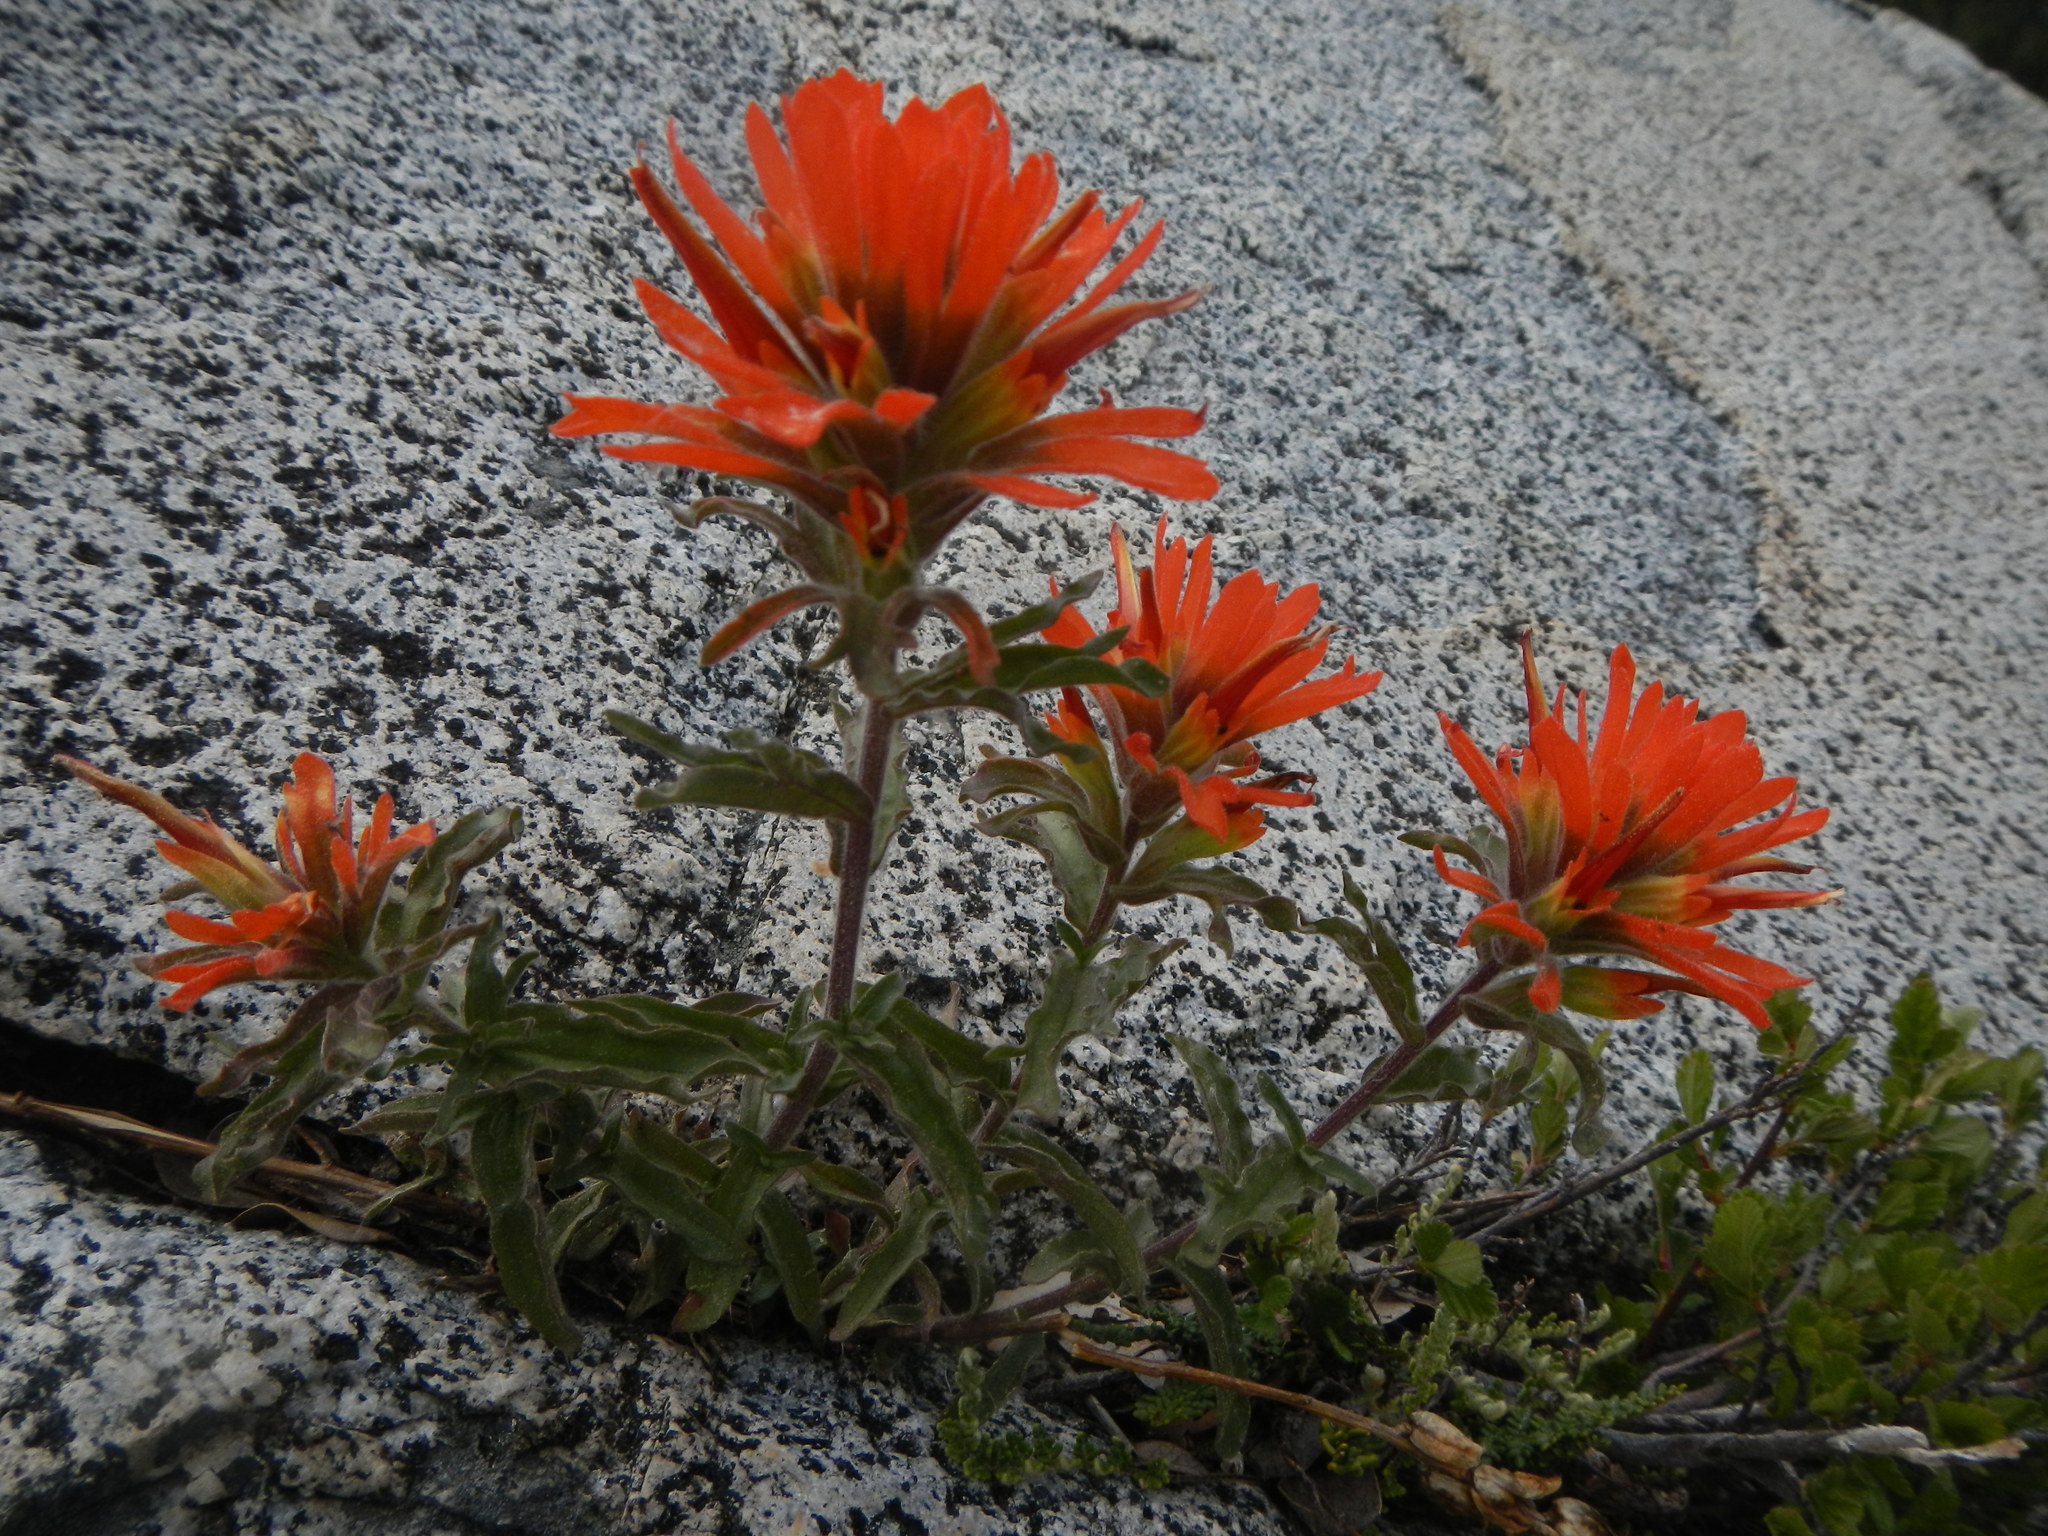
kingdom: Plantae
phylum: Tracheophyta
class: Magnoliopsida
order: Lamiales
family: Orobanchaceae
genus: Castilleja
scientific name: Castilleja applegatei
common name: Wavy-leaf paintbrush
